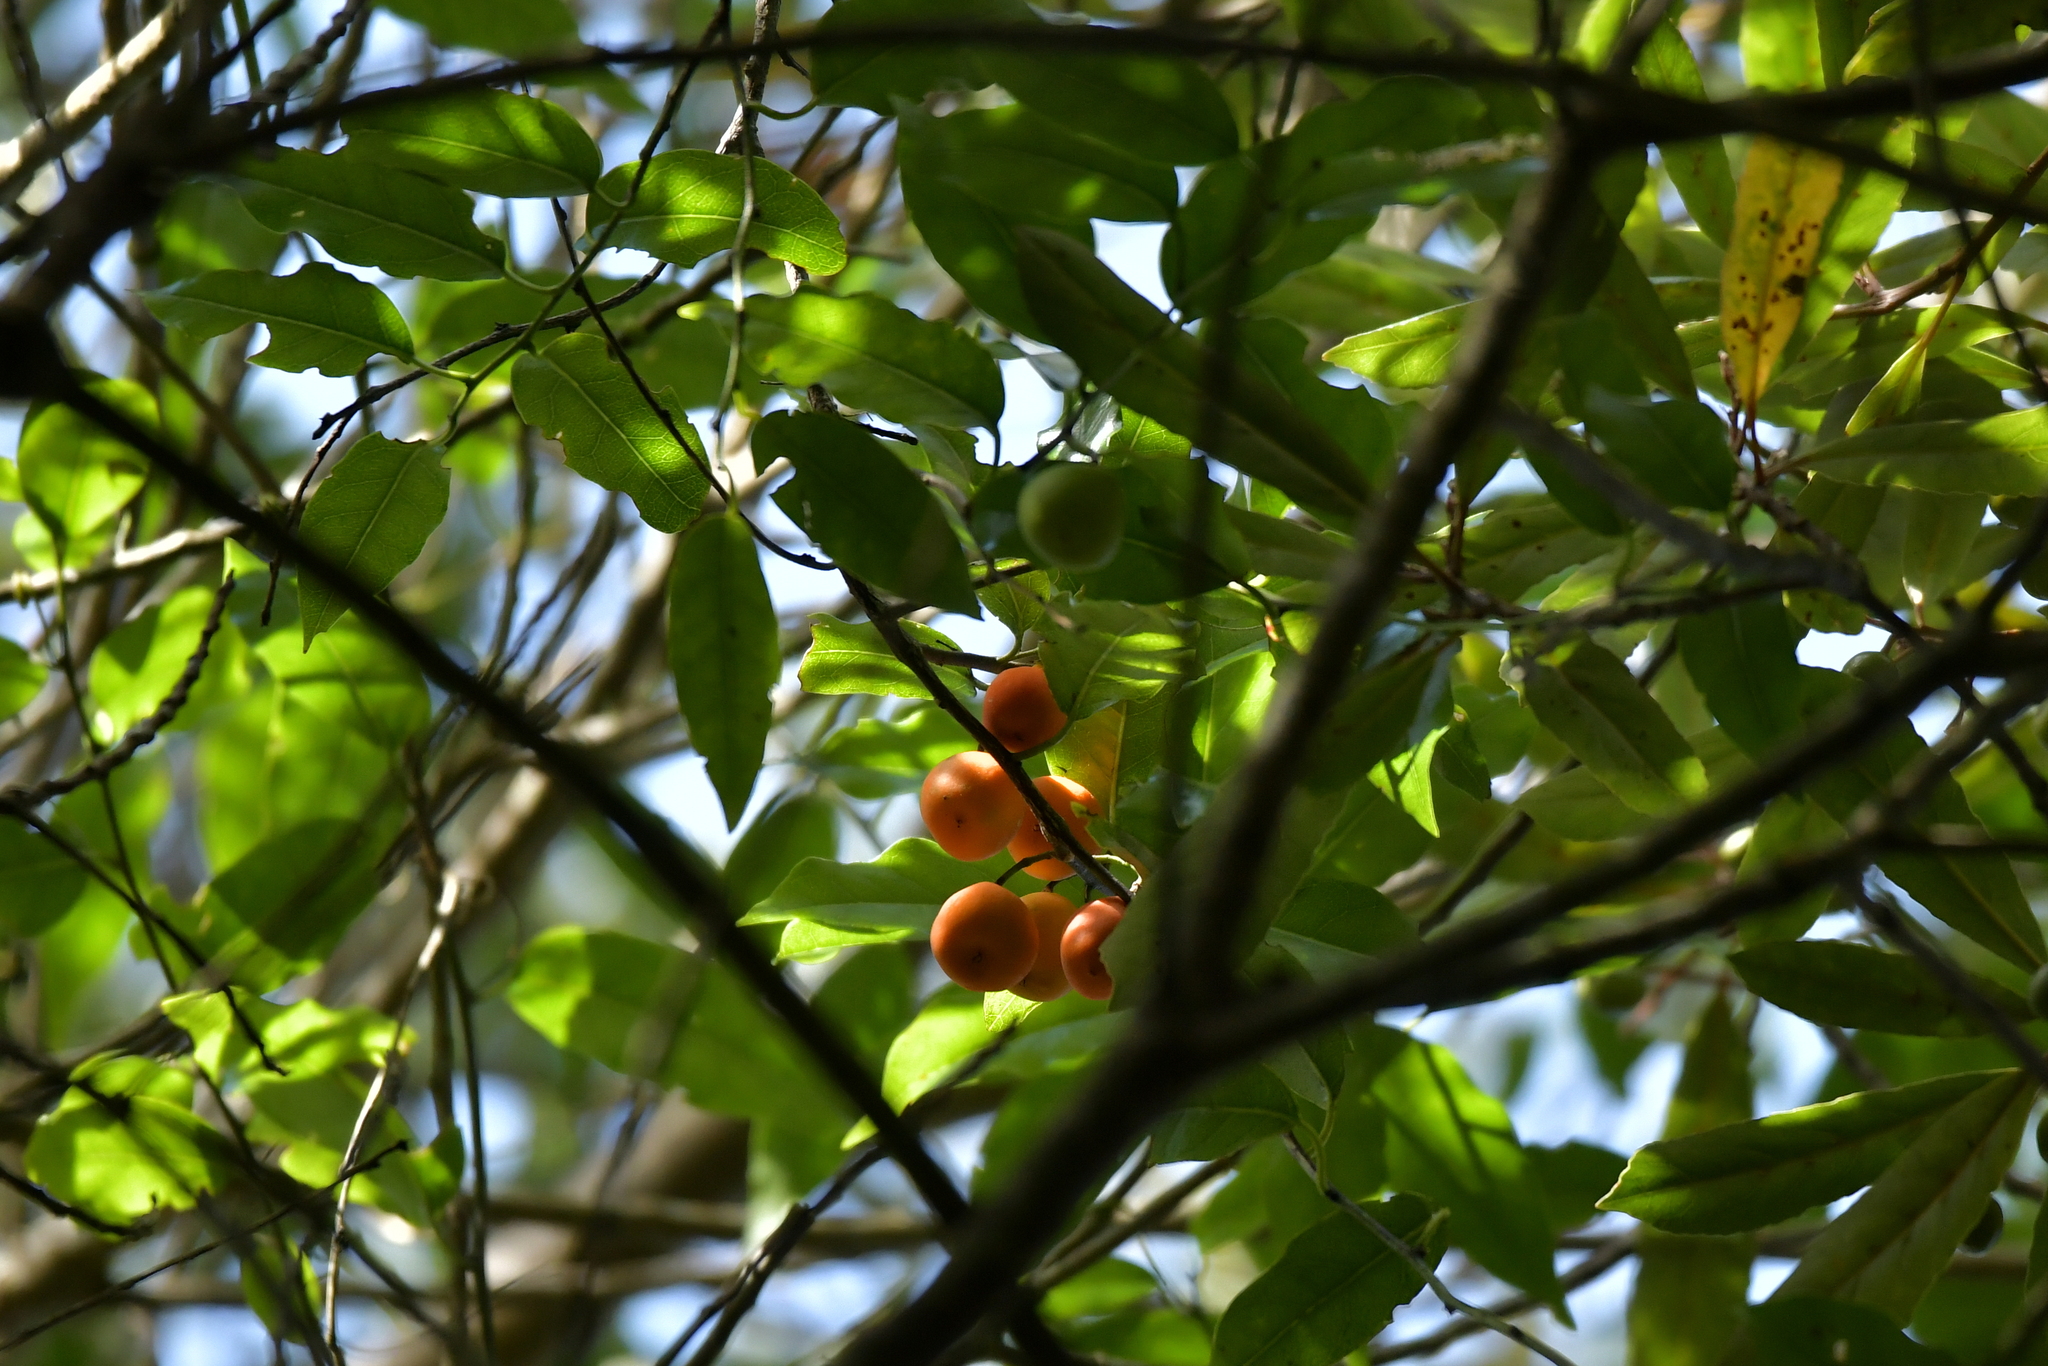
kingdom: Plantae
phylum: Tracheophyta
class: Magnoliopsida
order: Malpighiales
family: Passifloraceae
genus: Passiflora
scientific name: Passiflora tetrandra
